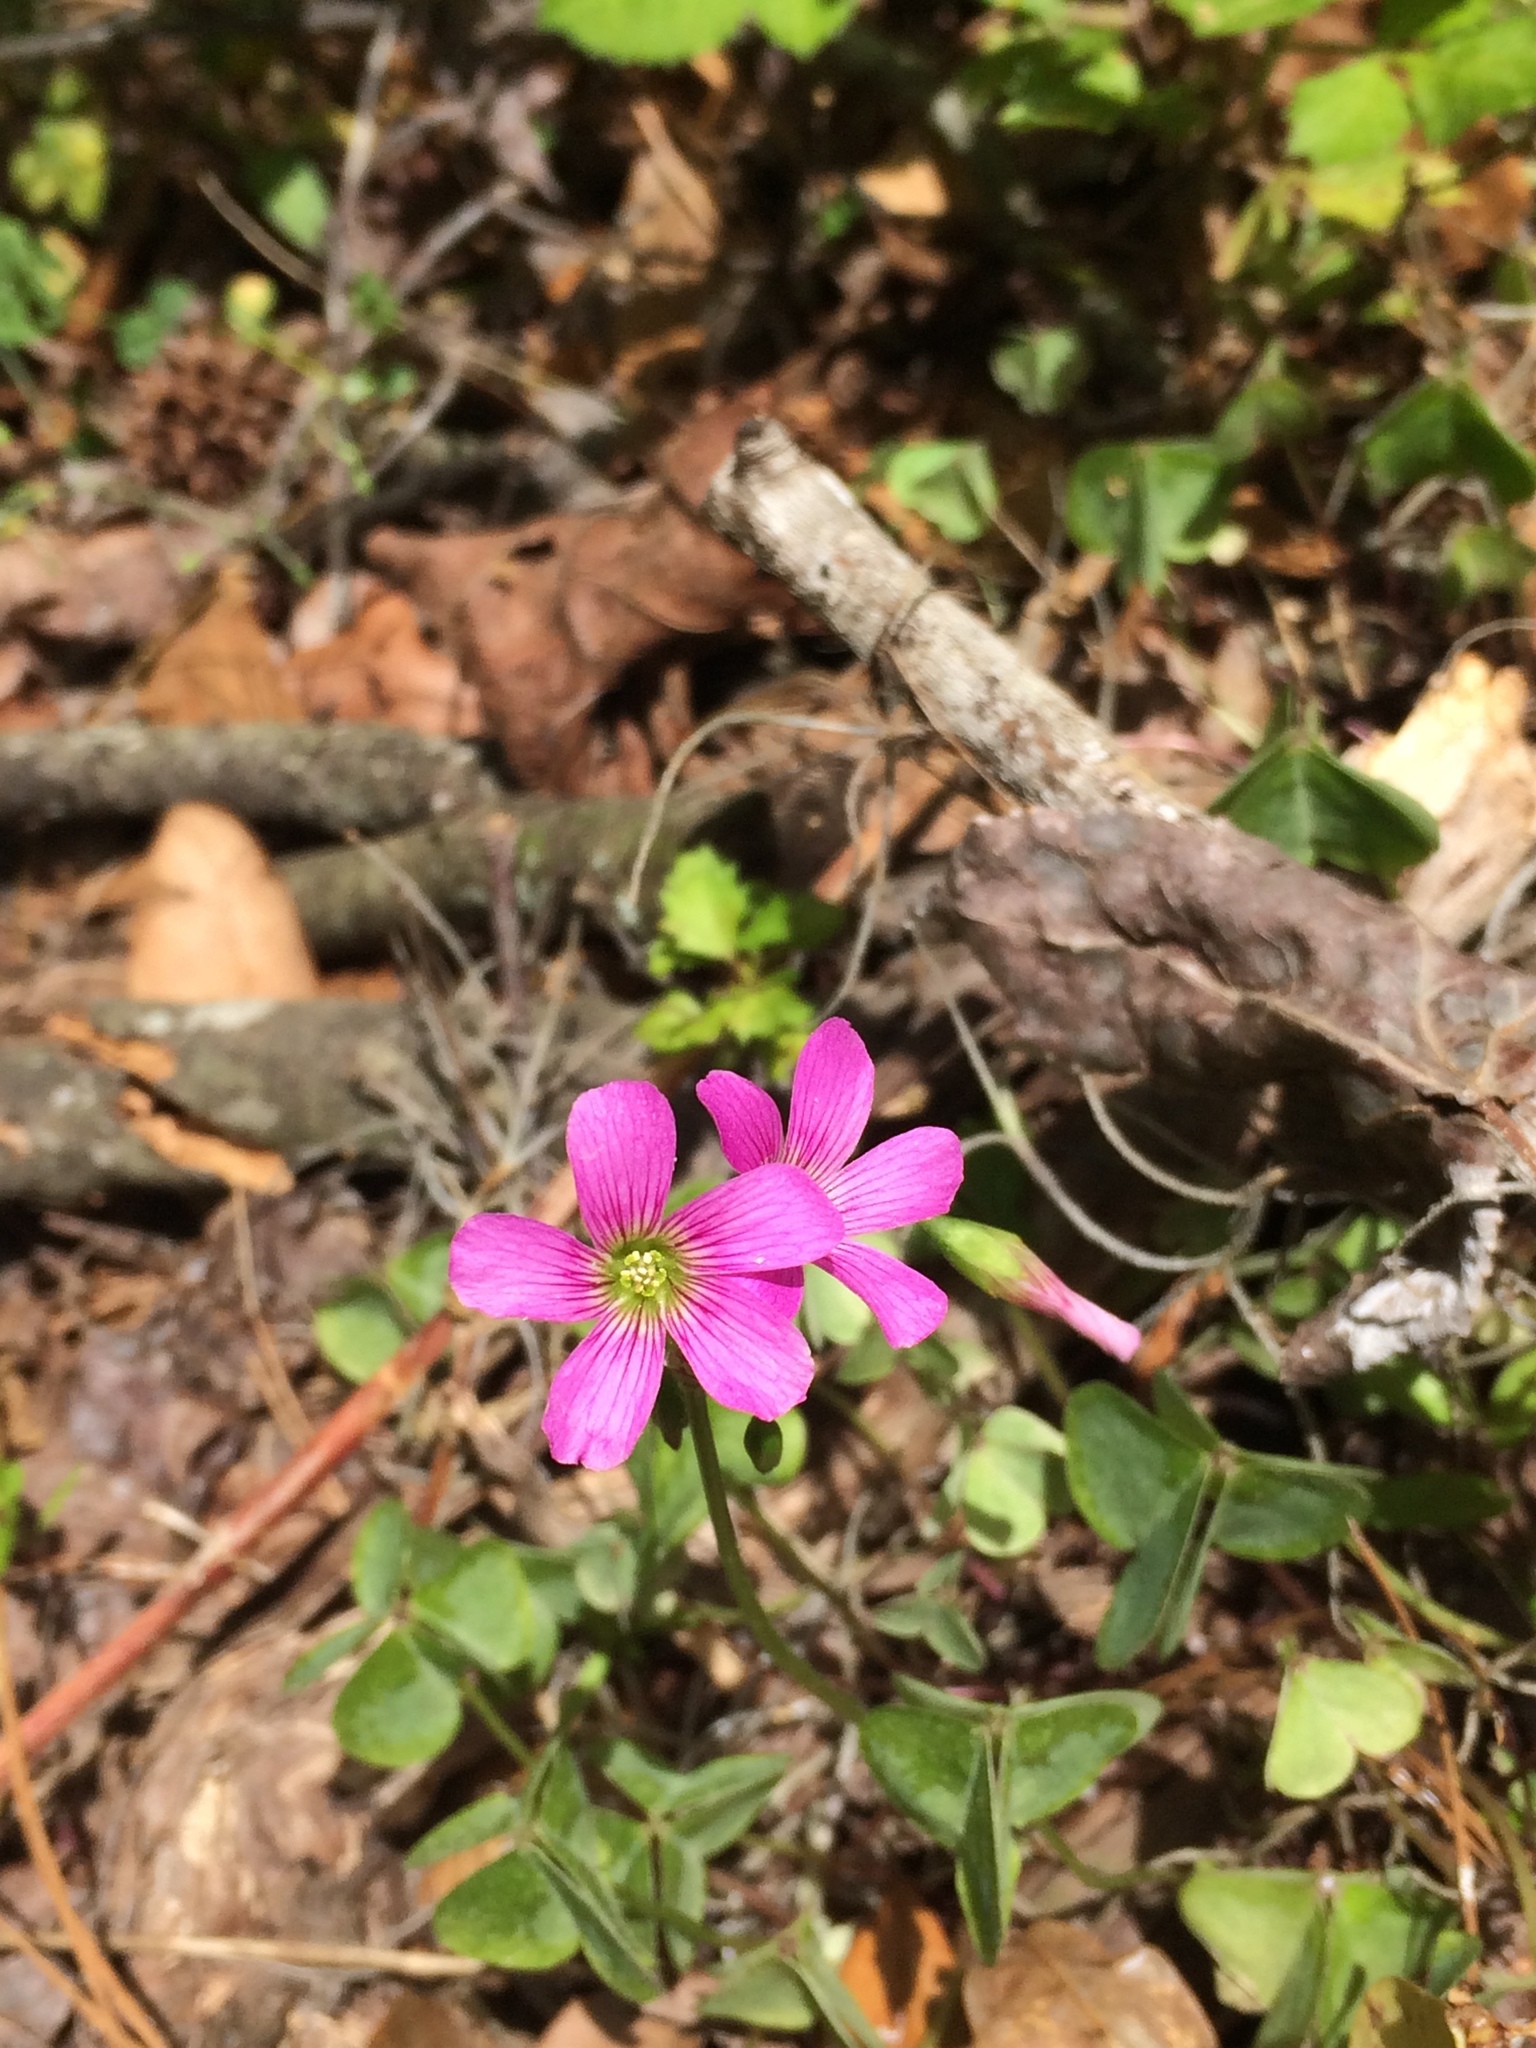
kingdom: Plantae
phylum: Tracheophyta
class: Magnoliopsida
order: Oxalidales
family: Oxalidaceae
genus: Oxalis
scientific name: Oxalis debilis
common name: Large-flowered pink-sorrel
